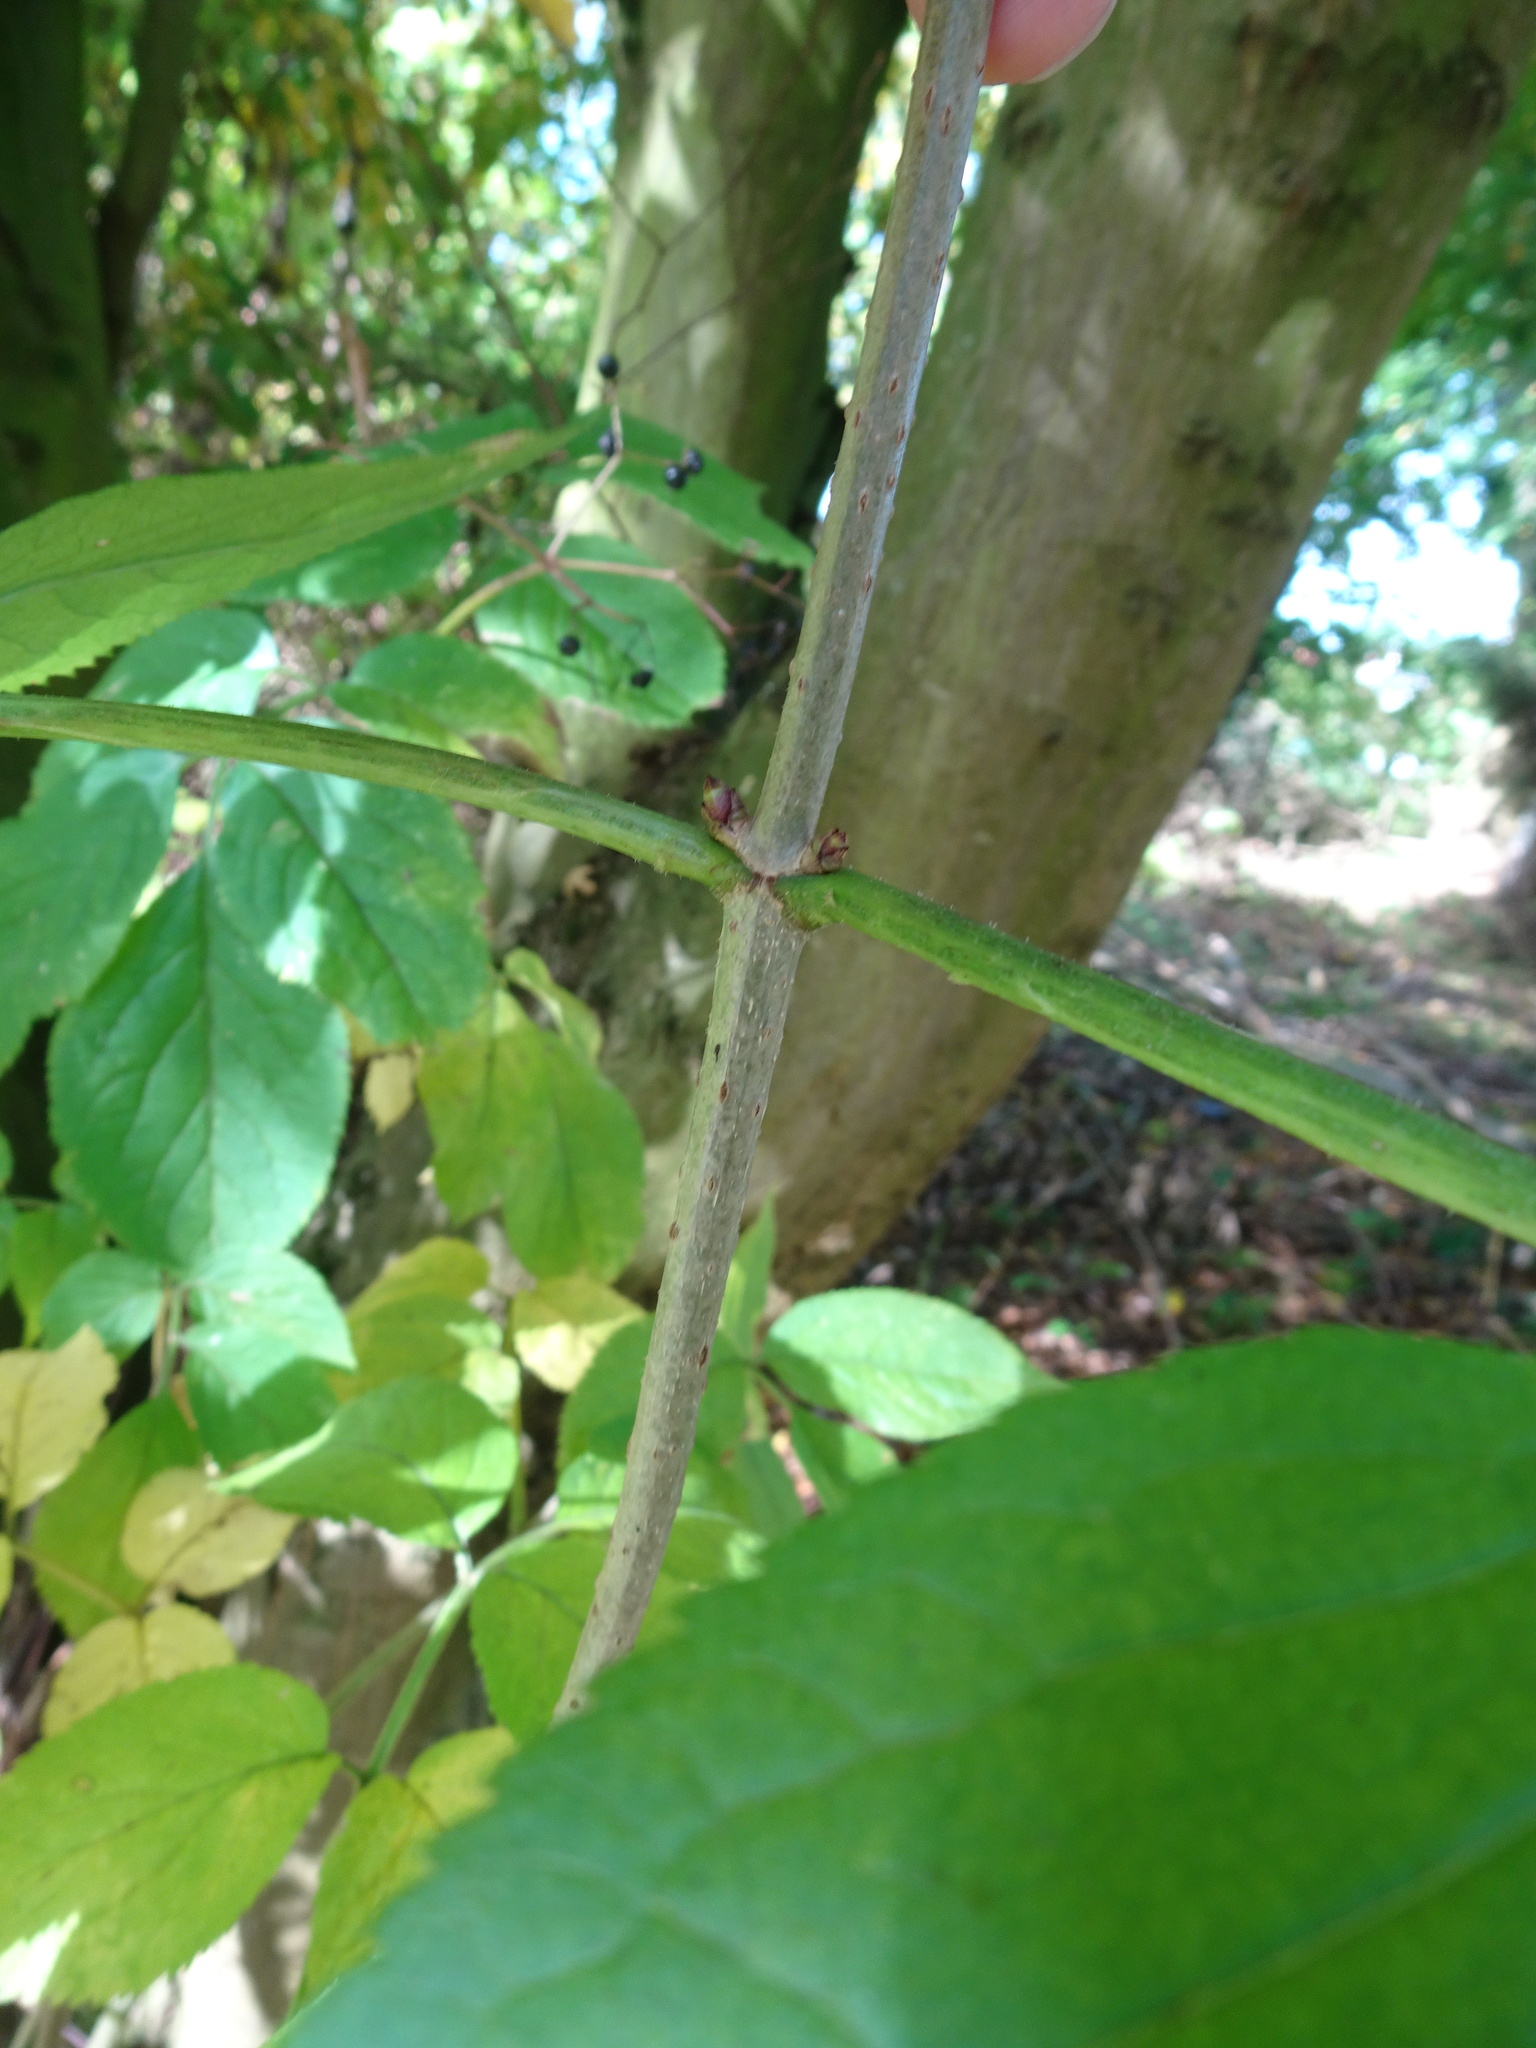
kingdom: Plantae
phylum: Tracheophyta
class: Magnoliopsida
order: Dipsacales
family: Viburnaceae
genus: Sambucus
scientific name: Sambucus nigra
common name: Elder
